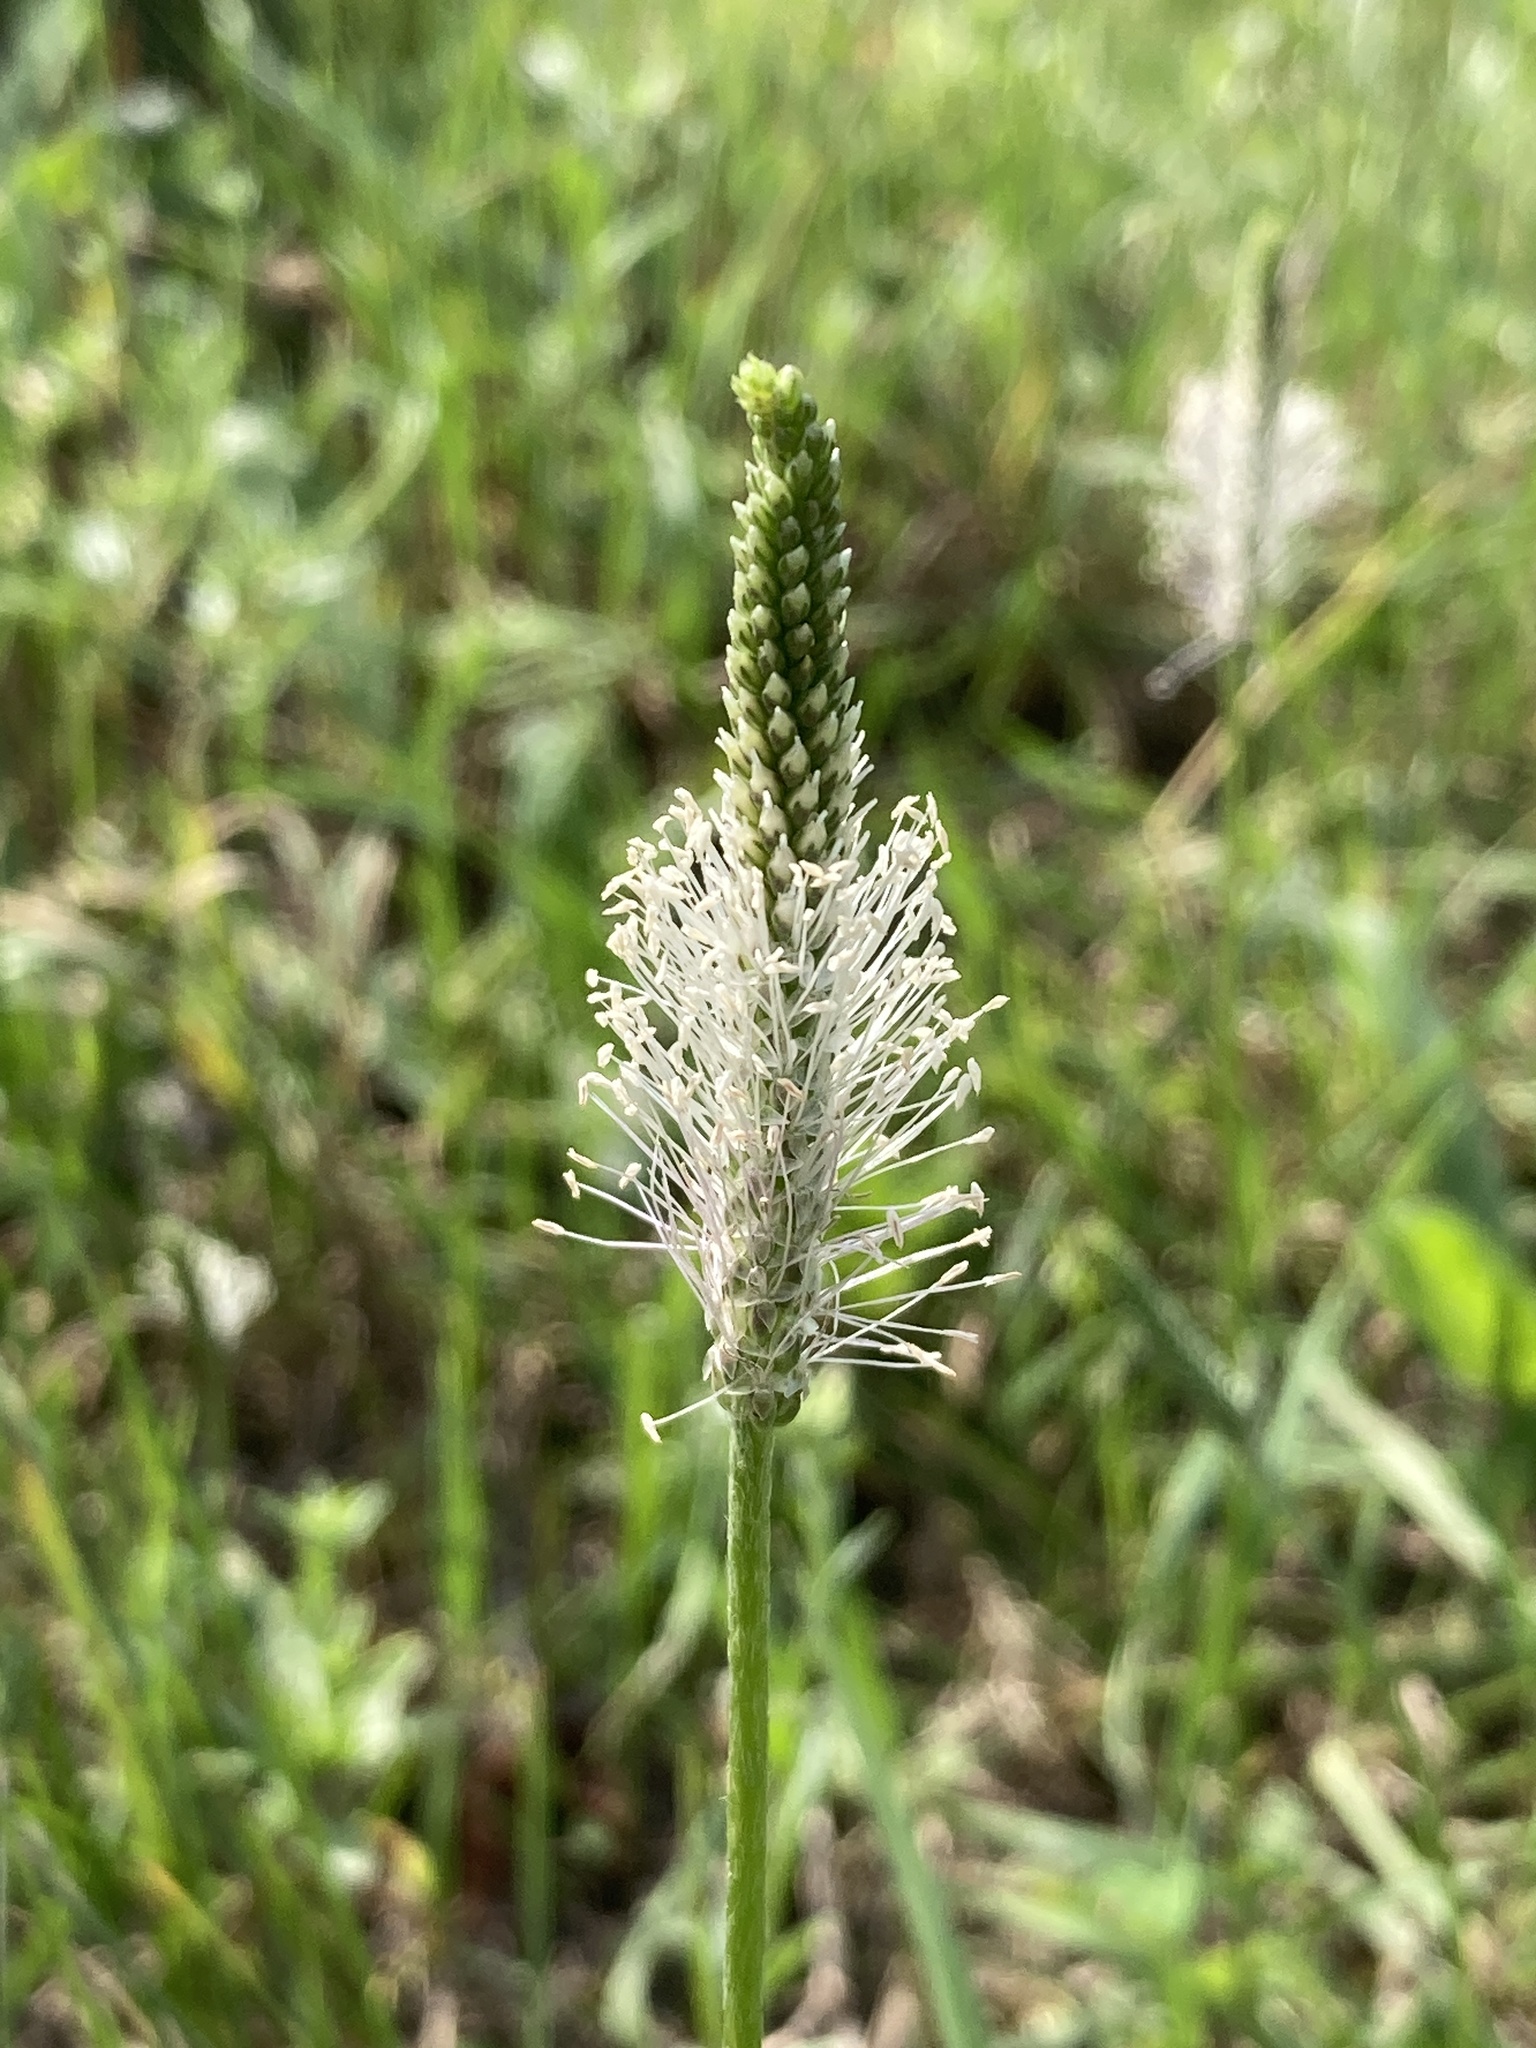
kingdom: Plantae
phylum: Tracheophyta
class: Magnoliopsida
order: Lamiales
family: Plantaginaceae
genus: Plantago
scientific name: Plantago media
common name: Hoary plantain
